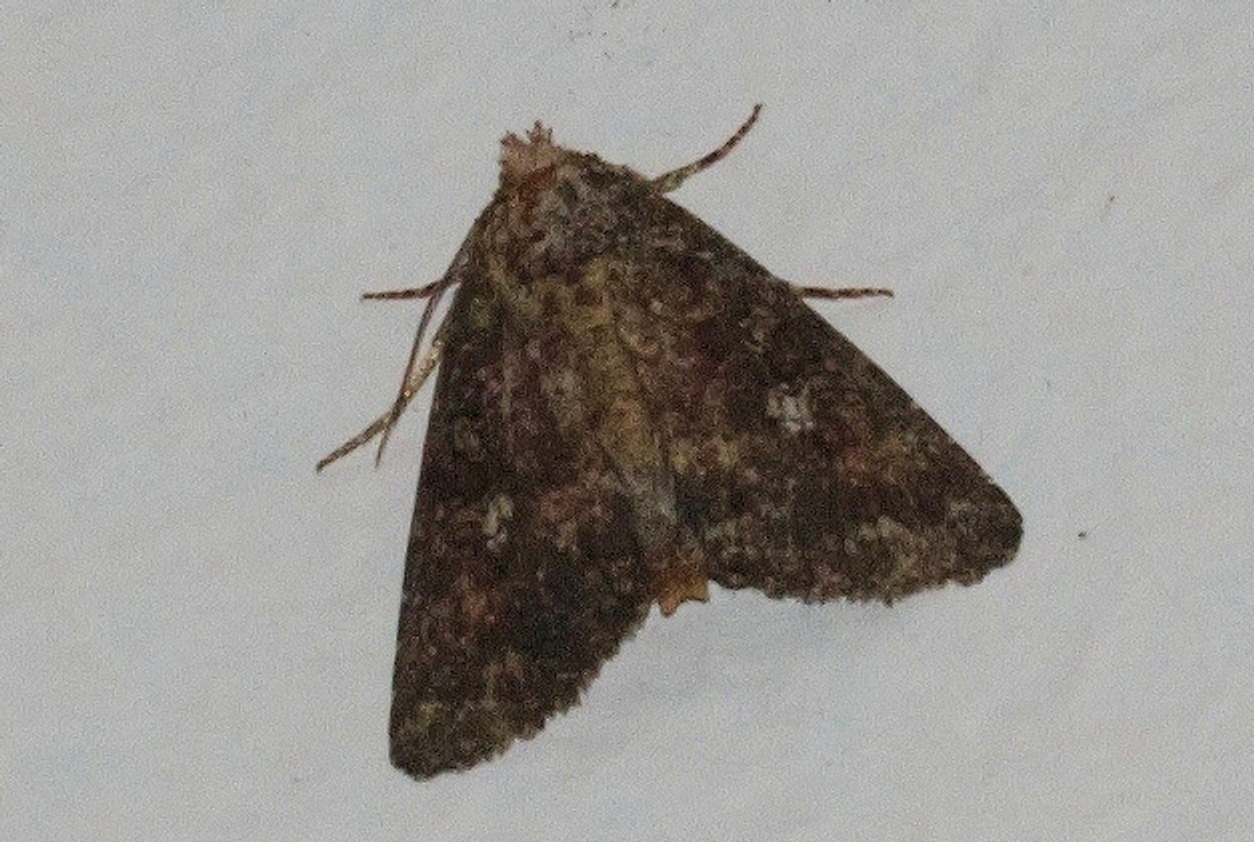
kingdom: Animalia
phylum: Arthropoda
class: Insecta
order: Lepidoptera
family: Noctuidae
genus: Condica
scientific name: Condica capensis
